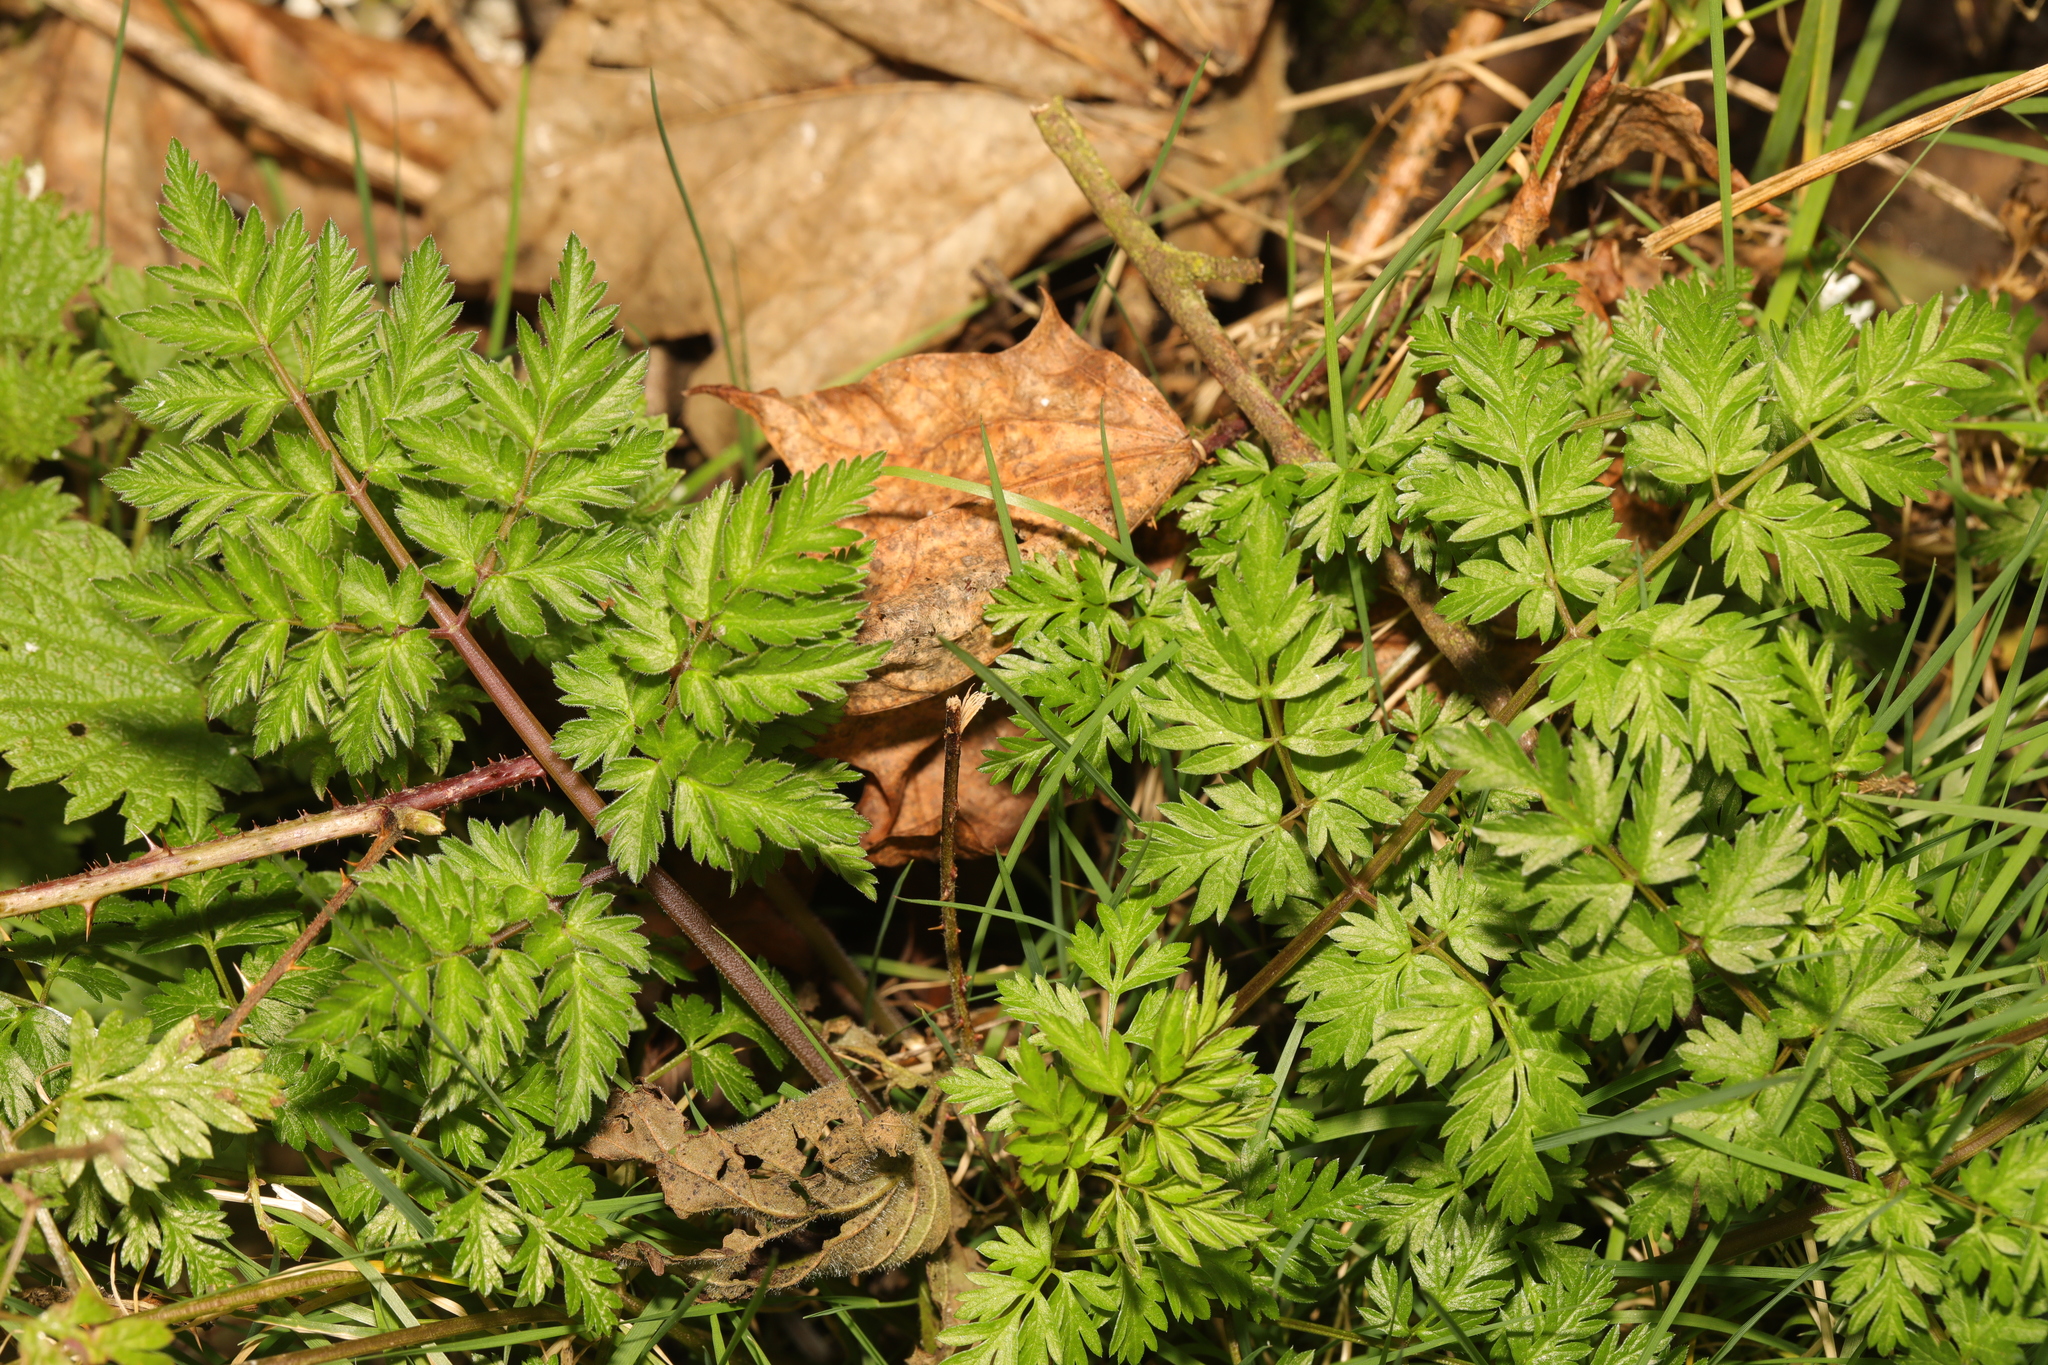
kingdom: Plantae
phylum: Tracheophyta
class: Magnoliopsida
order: Apiales
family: Apiaceae
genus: Anthriscus
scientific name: Anthriscus sylvestris
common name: Cow parsley
